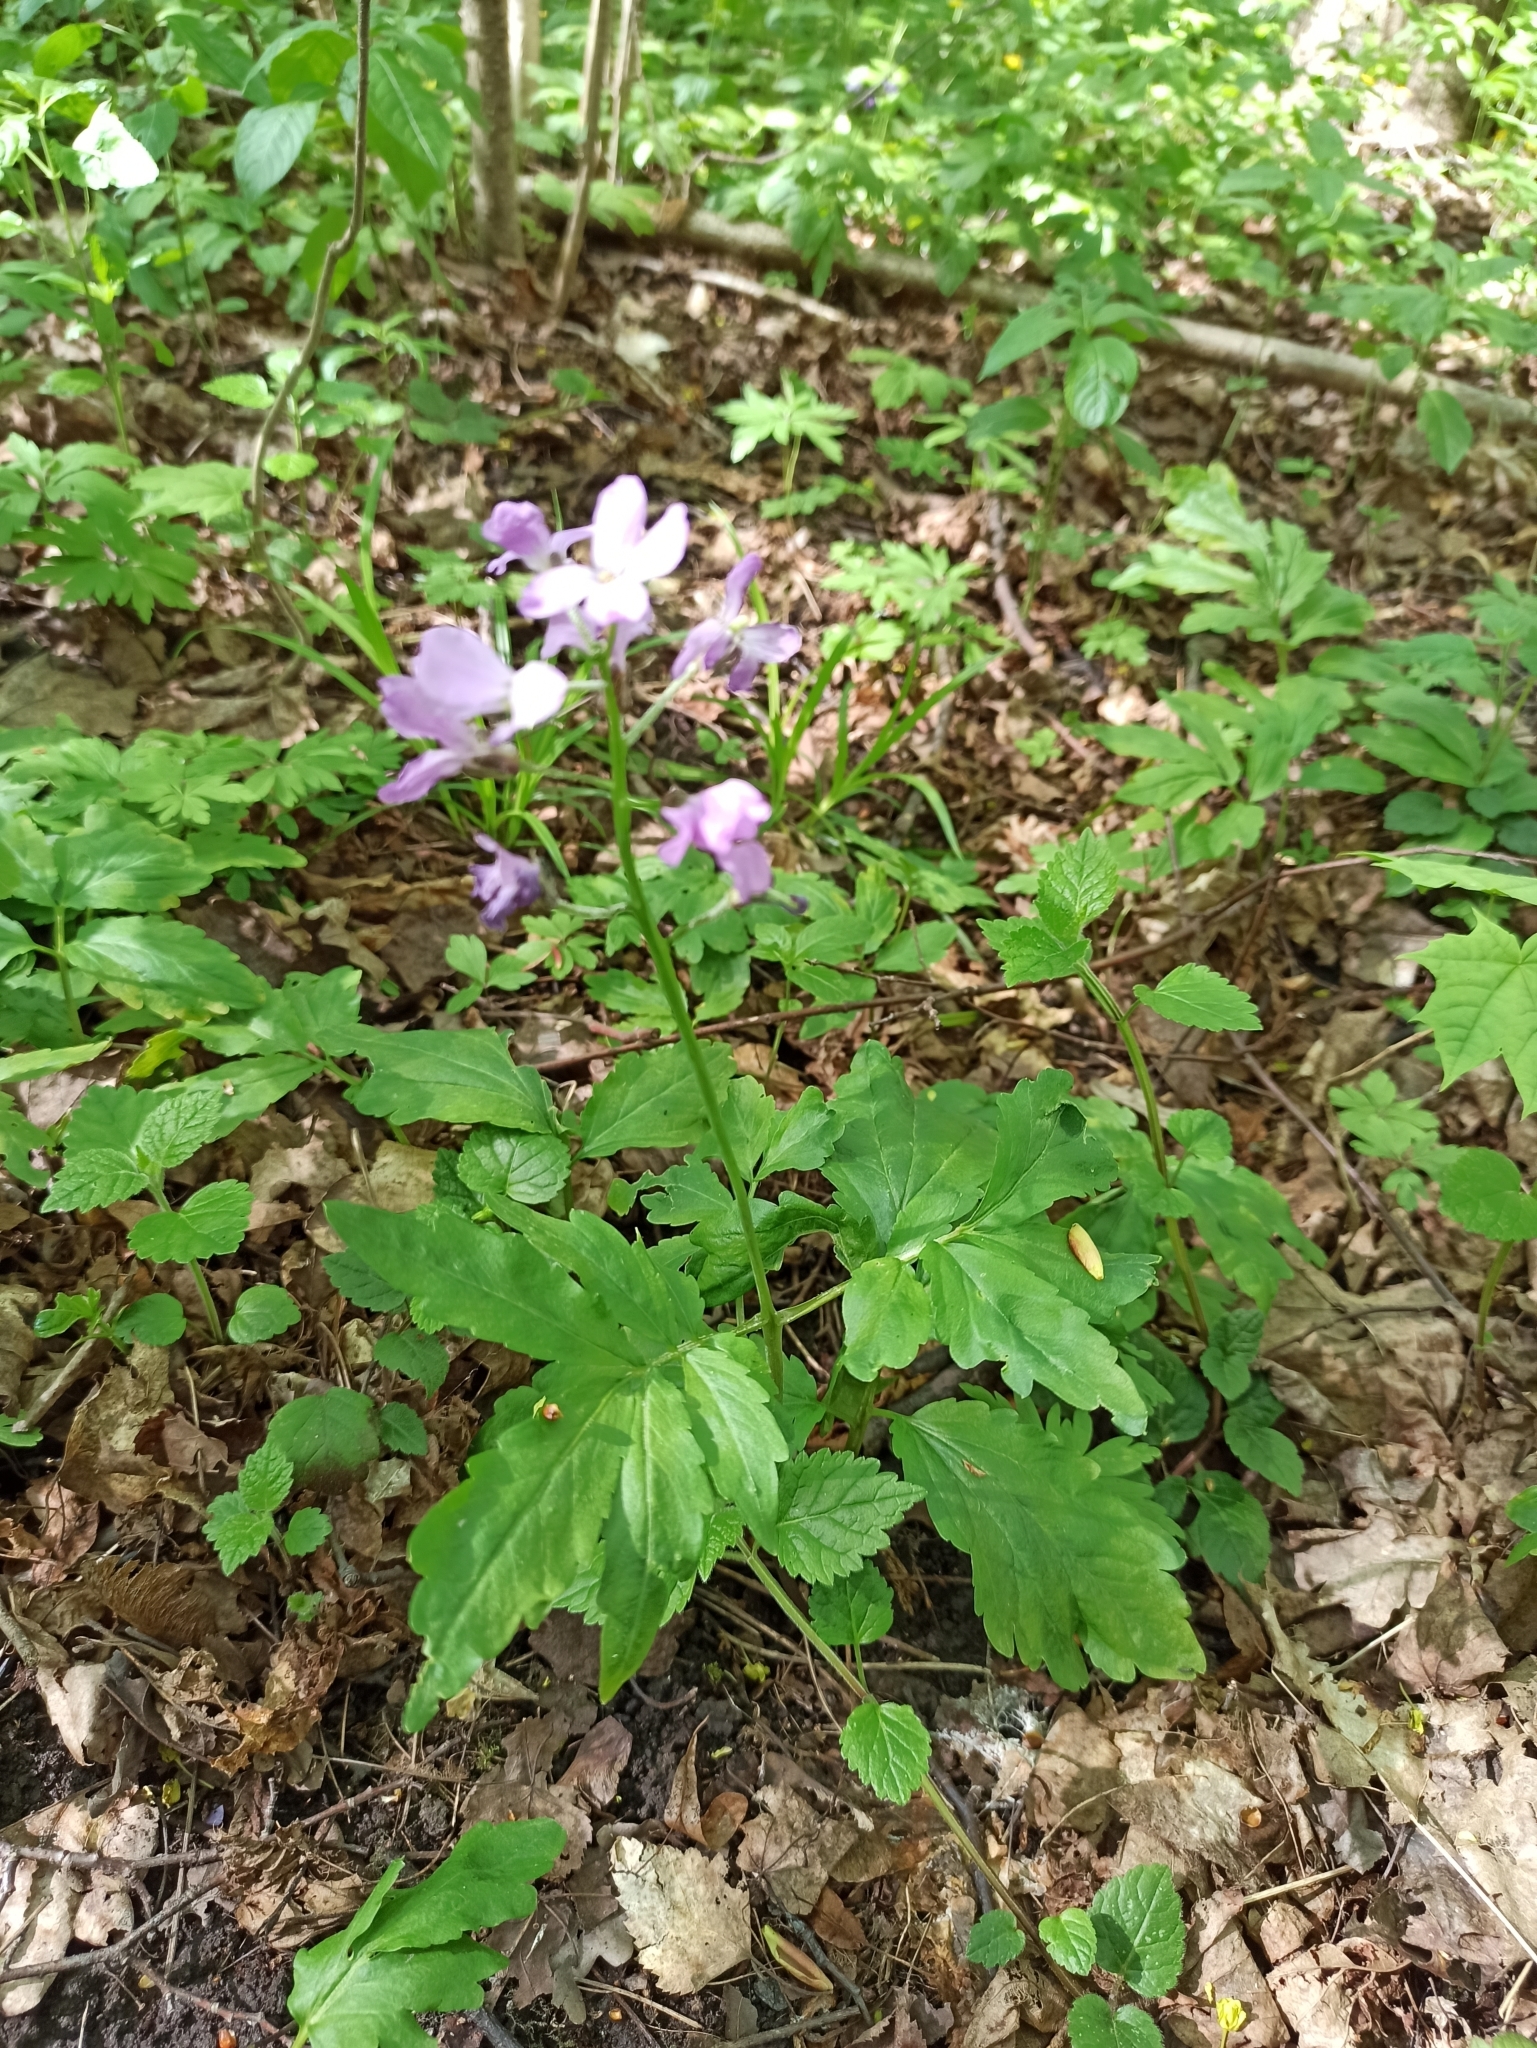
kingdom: Plantae
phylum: Tracheophyta
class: Magnoliopsida
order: Brassicales
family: Brassicaceae
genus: Cardamine
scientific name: Cardamine quinquefolia
